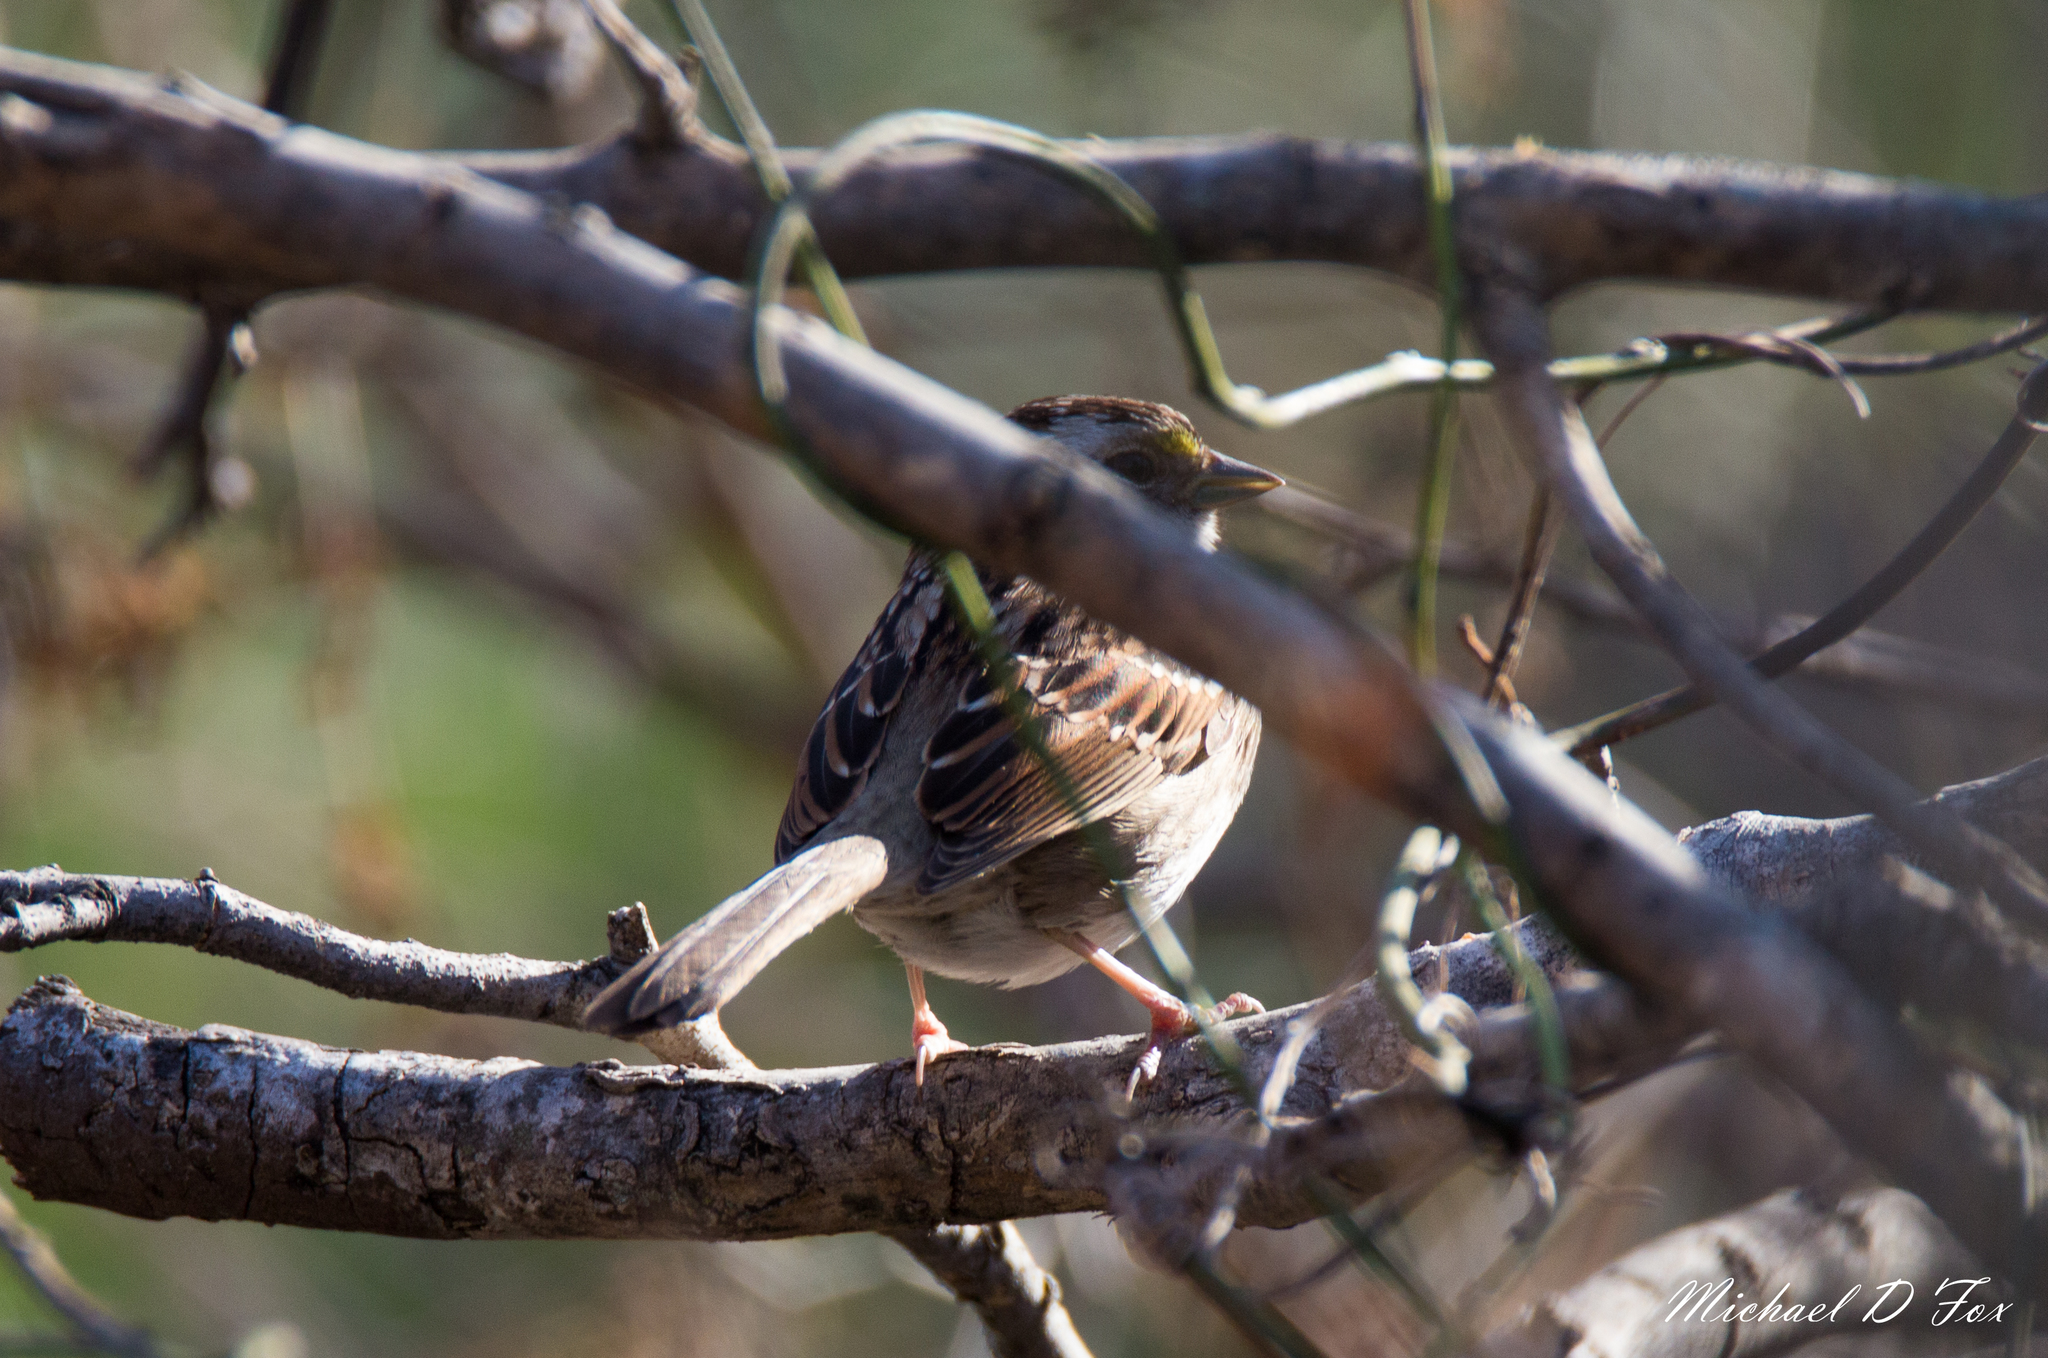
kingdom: Animalia
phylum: Chordata
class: Aves
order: Passeriformes
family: Passerellidae
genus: Zonotrichia
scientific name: Zonotrichia albicollis
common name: White-throated sparrow
